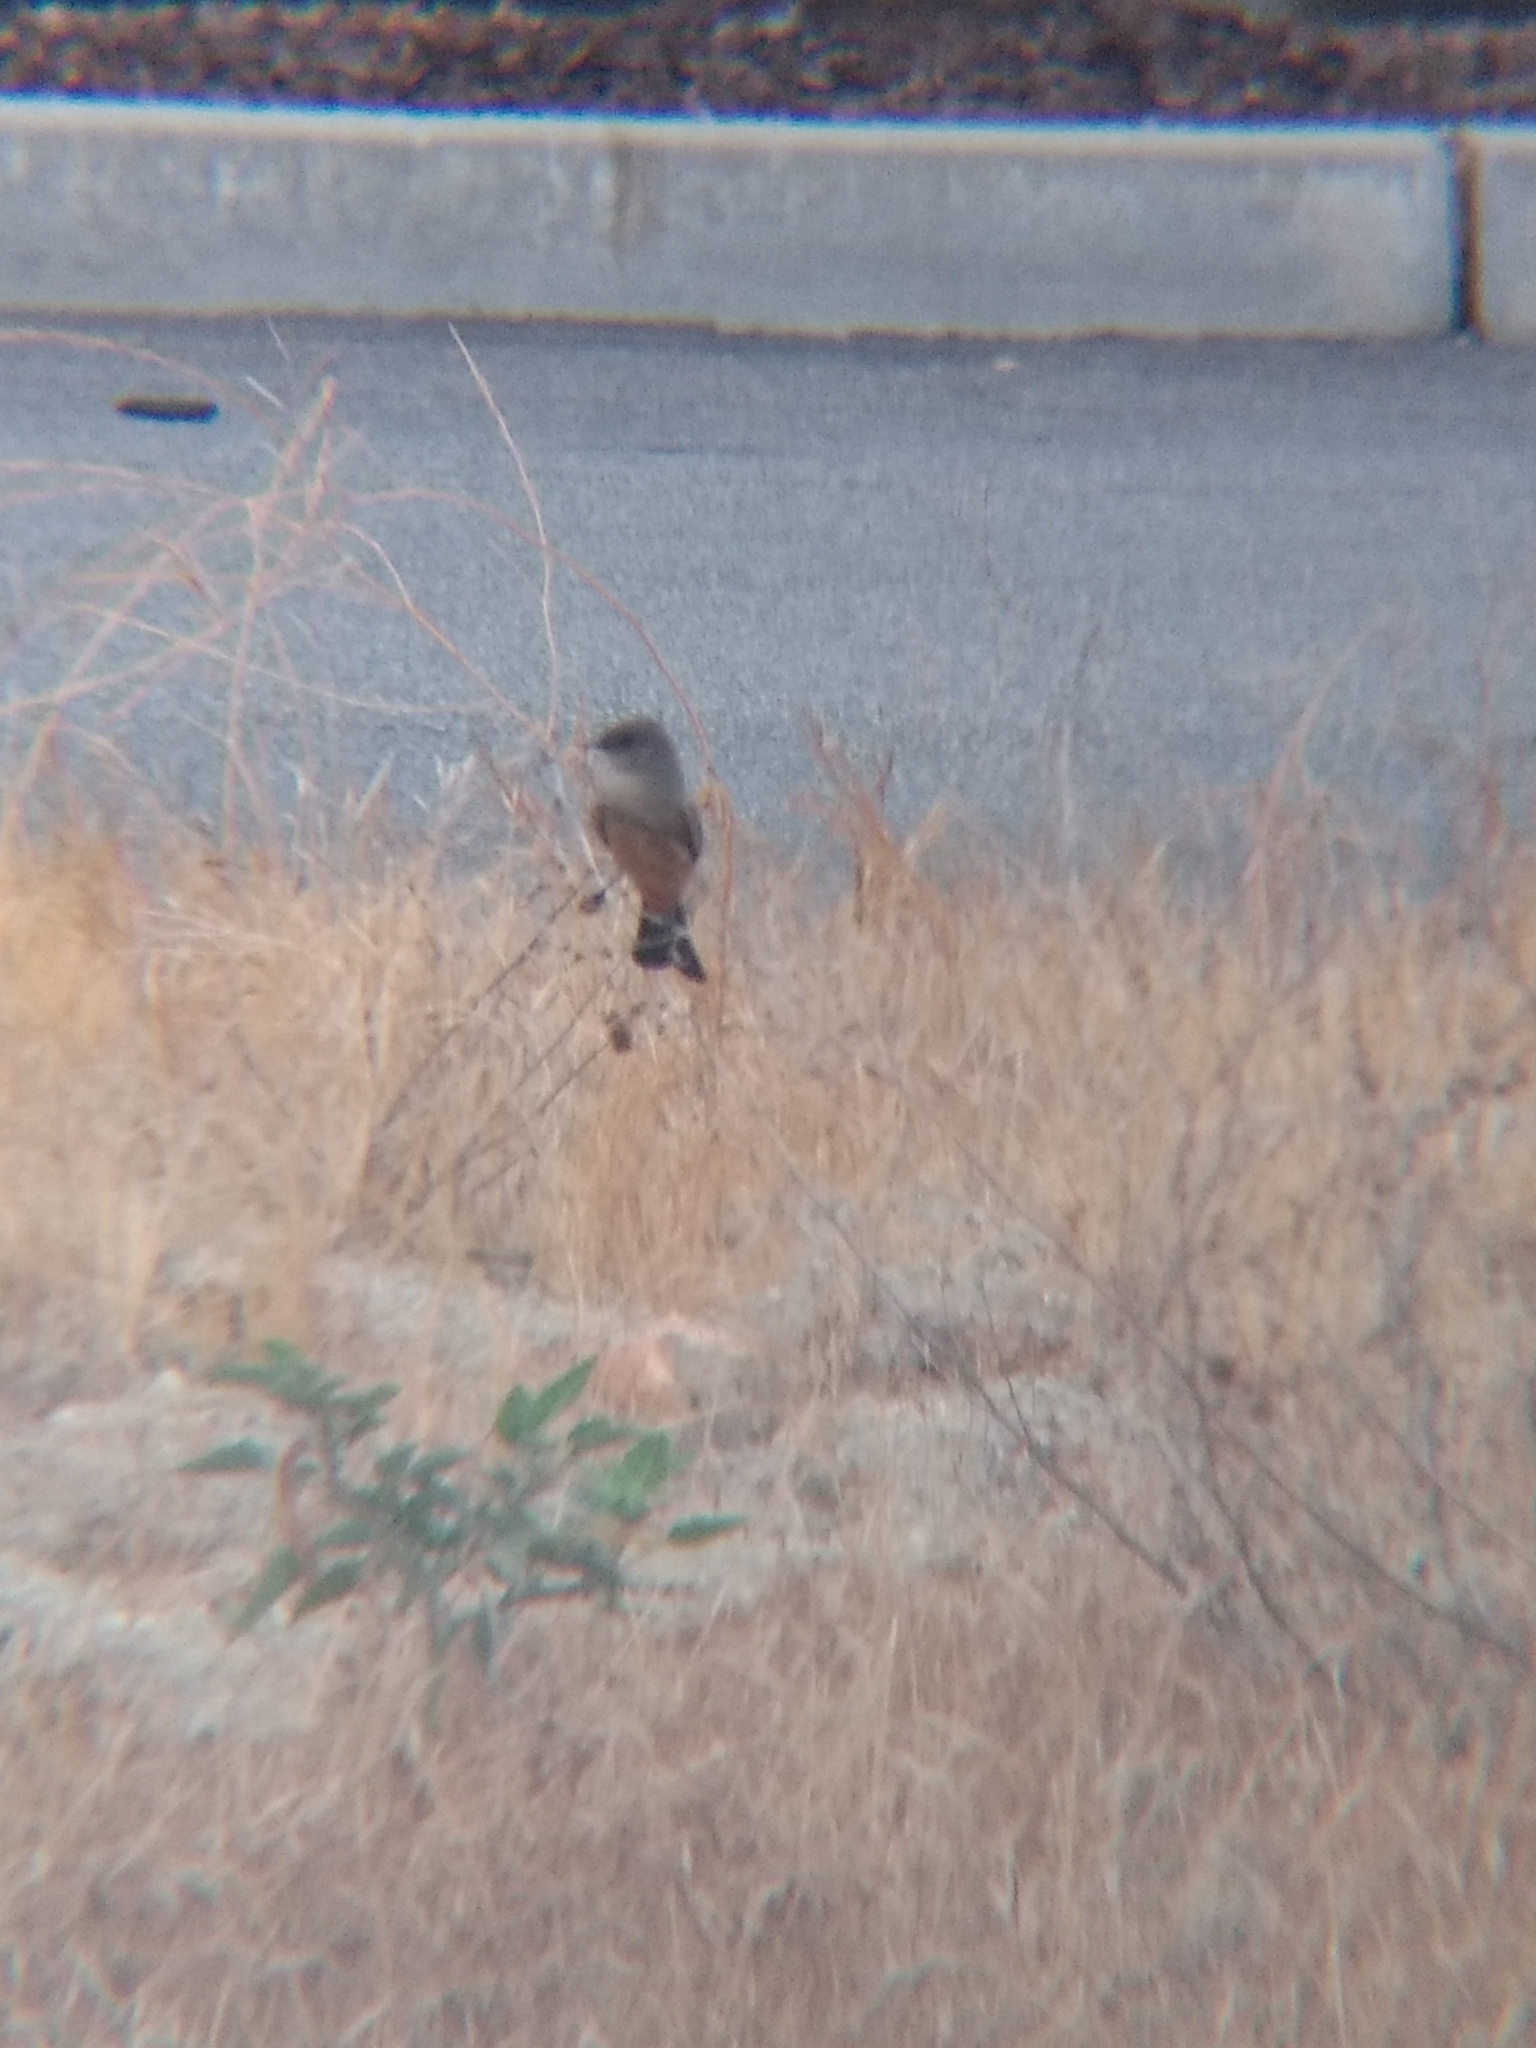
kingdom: Animalia
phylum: Chordata
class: Aves
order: Passeriformes
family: Tyrannidae
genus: Sayornis
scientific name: Sayornis saya
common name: Say's phoebe
